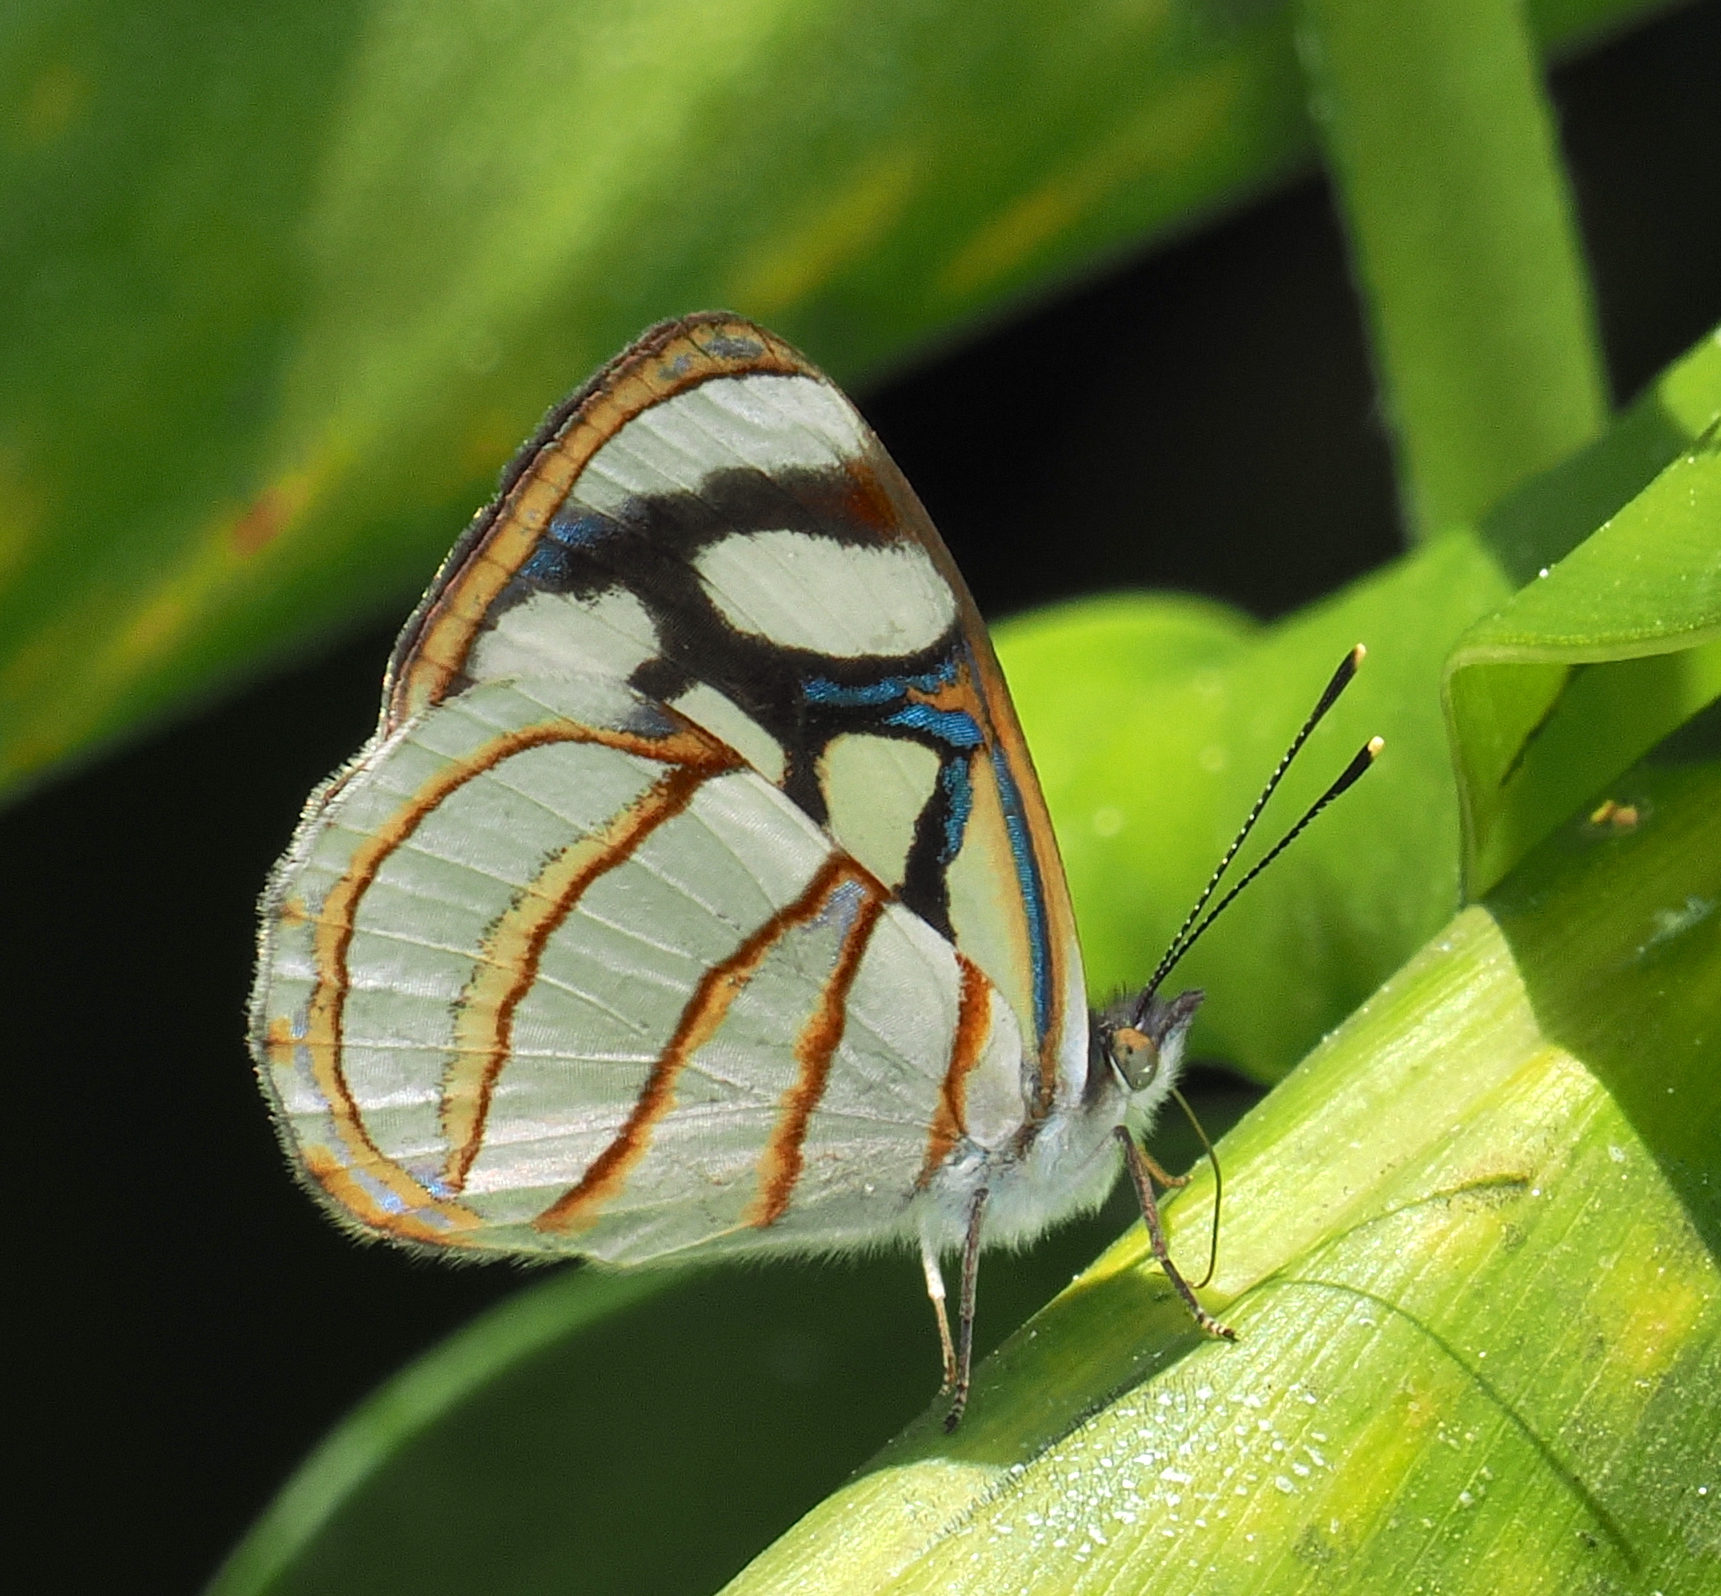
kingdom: Animalia
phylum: Arthropoda
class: Insecta
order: Lepidoptera
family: Nymphalidae
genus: Dynamine
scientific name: Dynamine setabis
